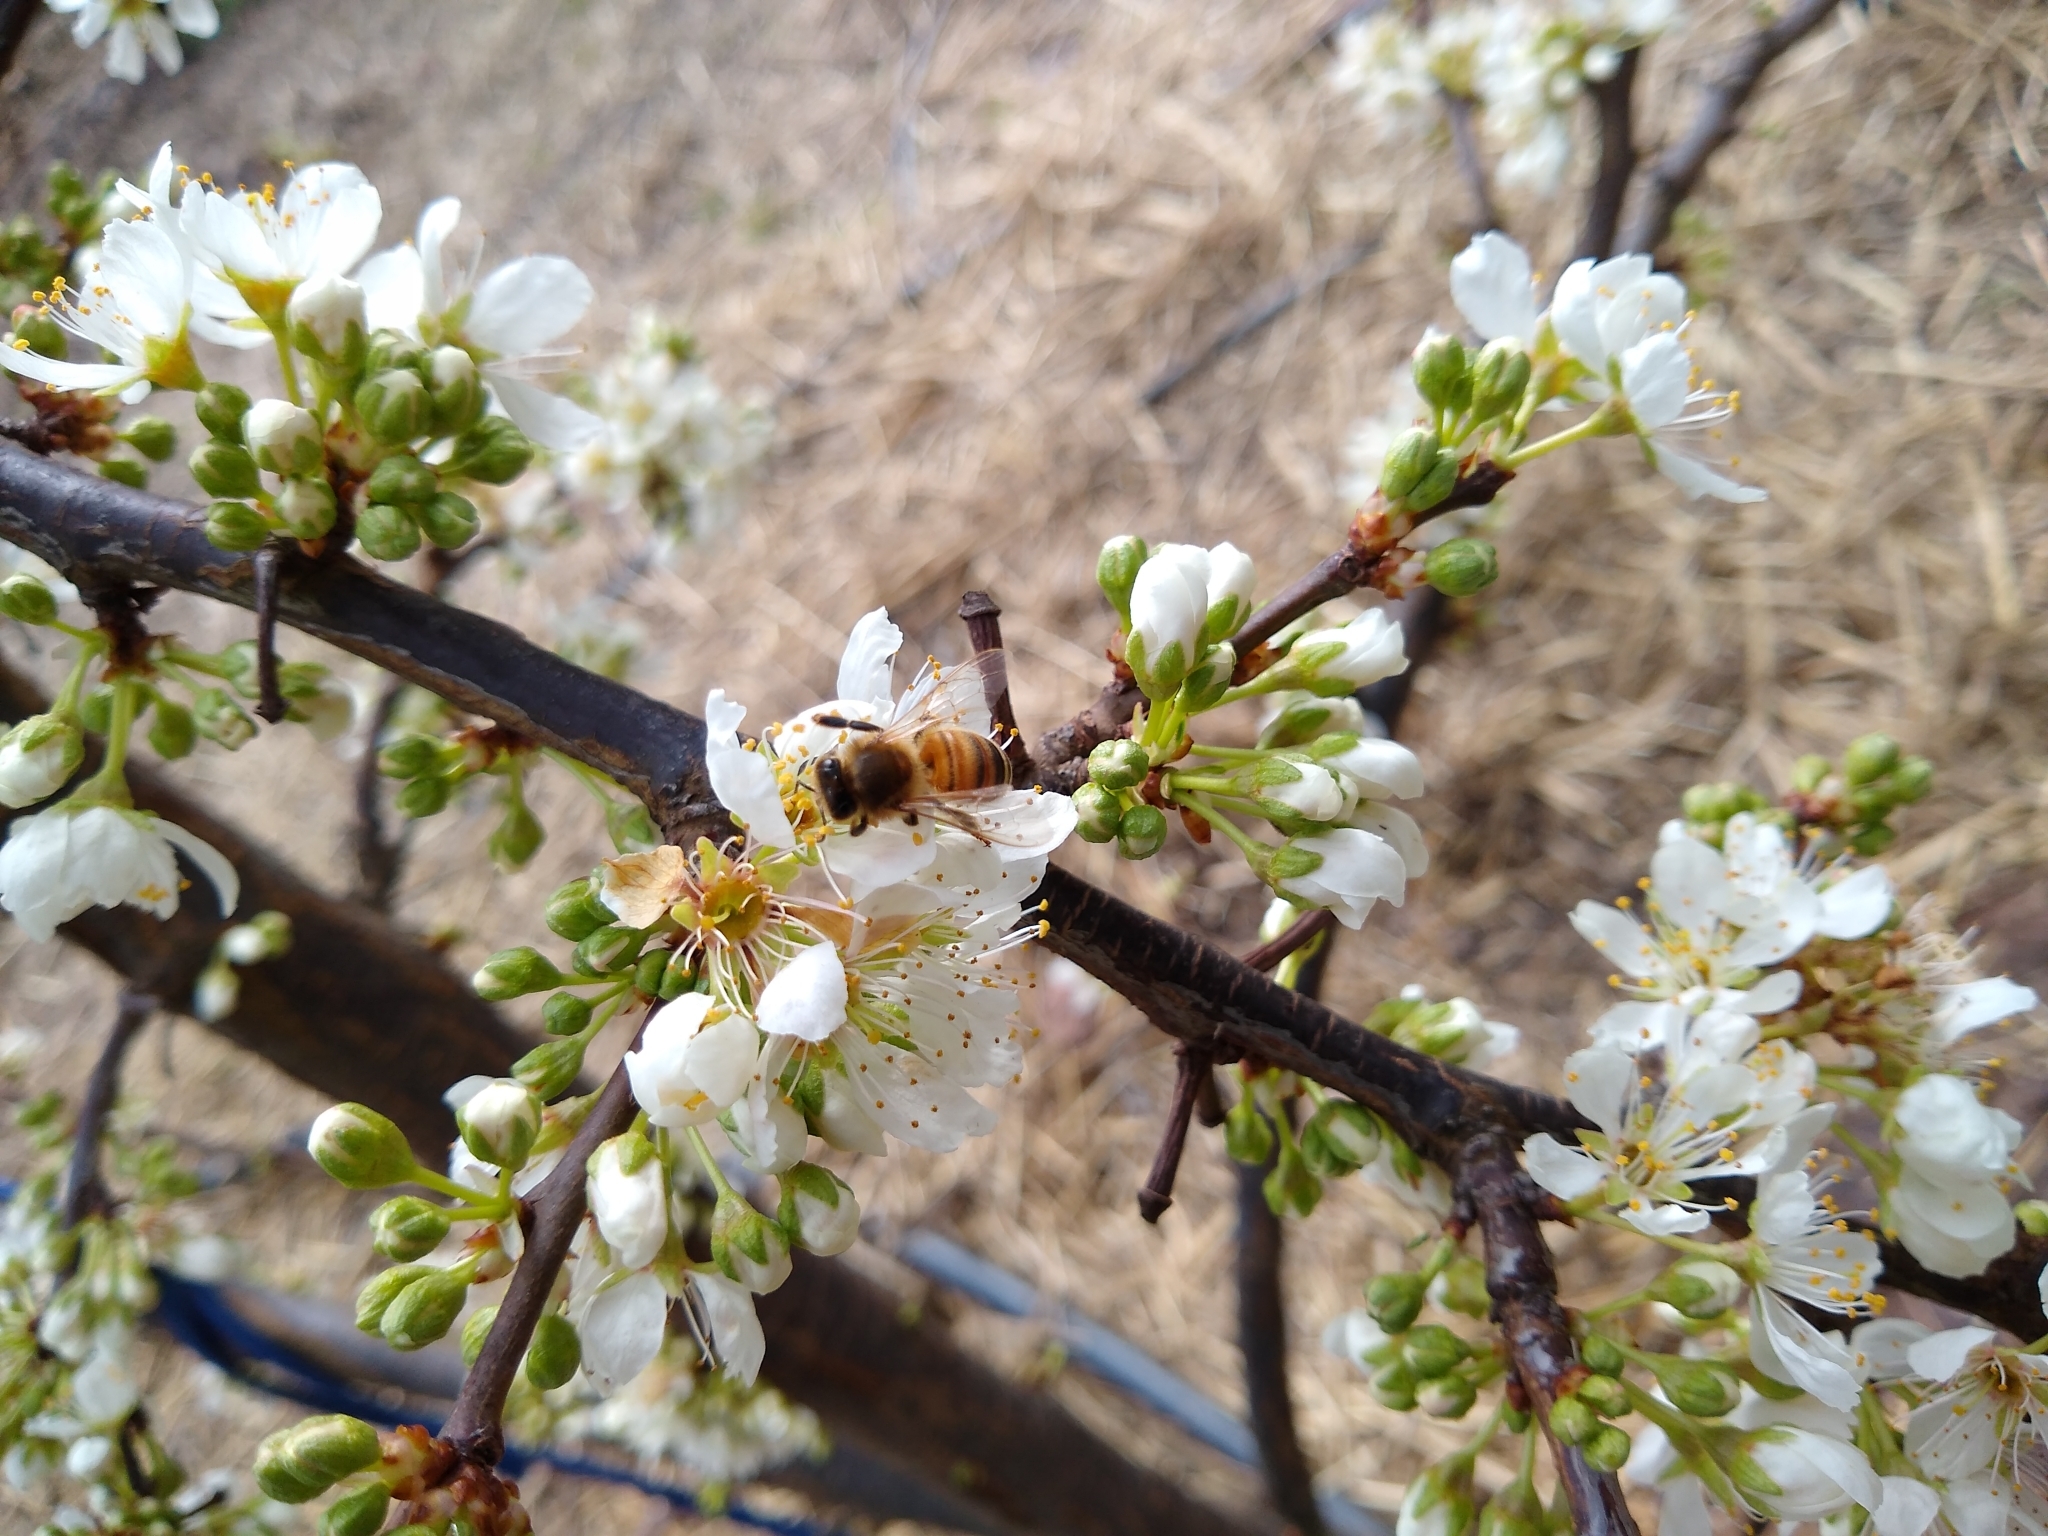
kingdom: Animalia
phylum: Arthropoda
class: Insecta
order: Hymenoptera
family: Apidae
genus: Apis
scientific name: Apis mellifera
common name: Honey bee
